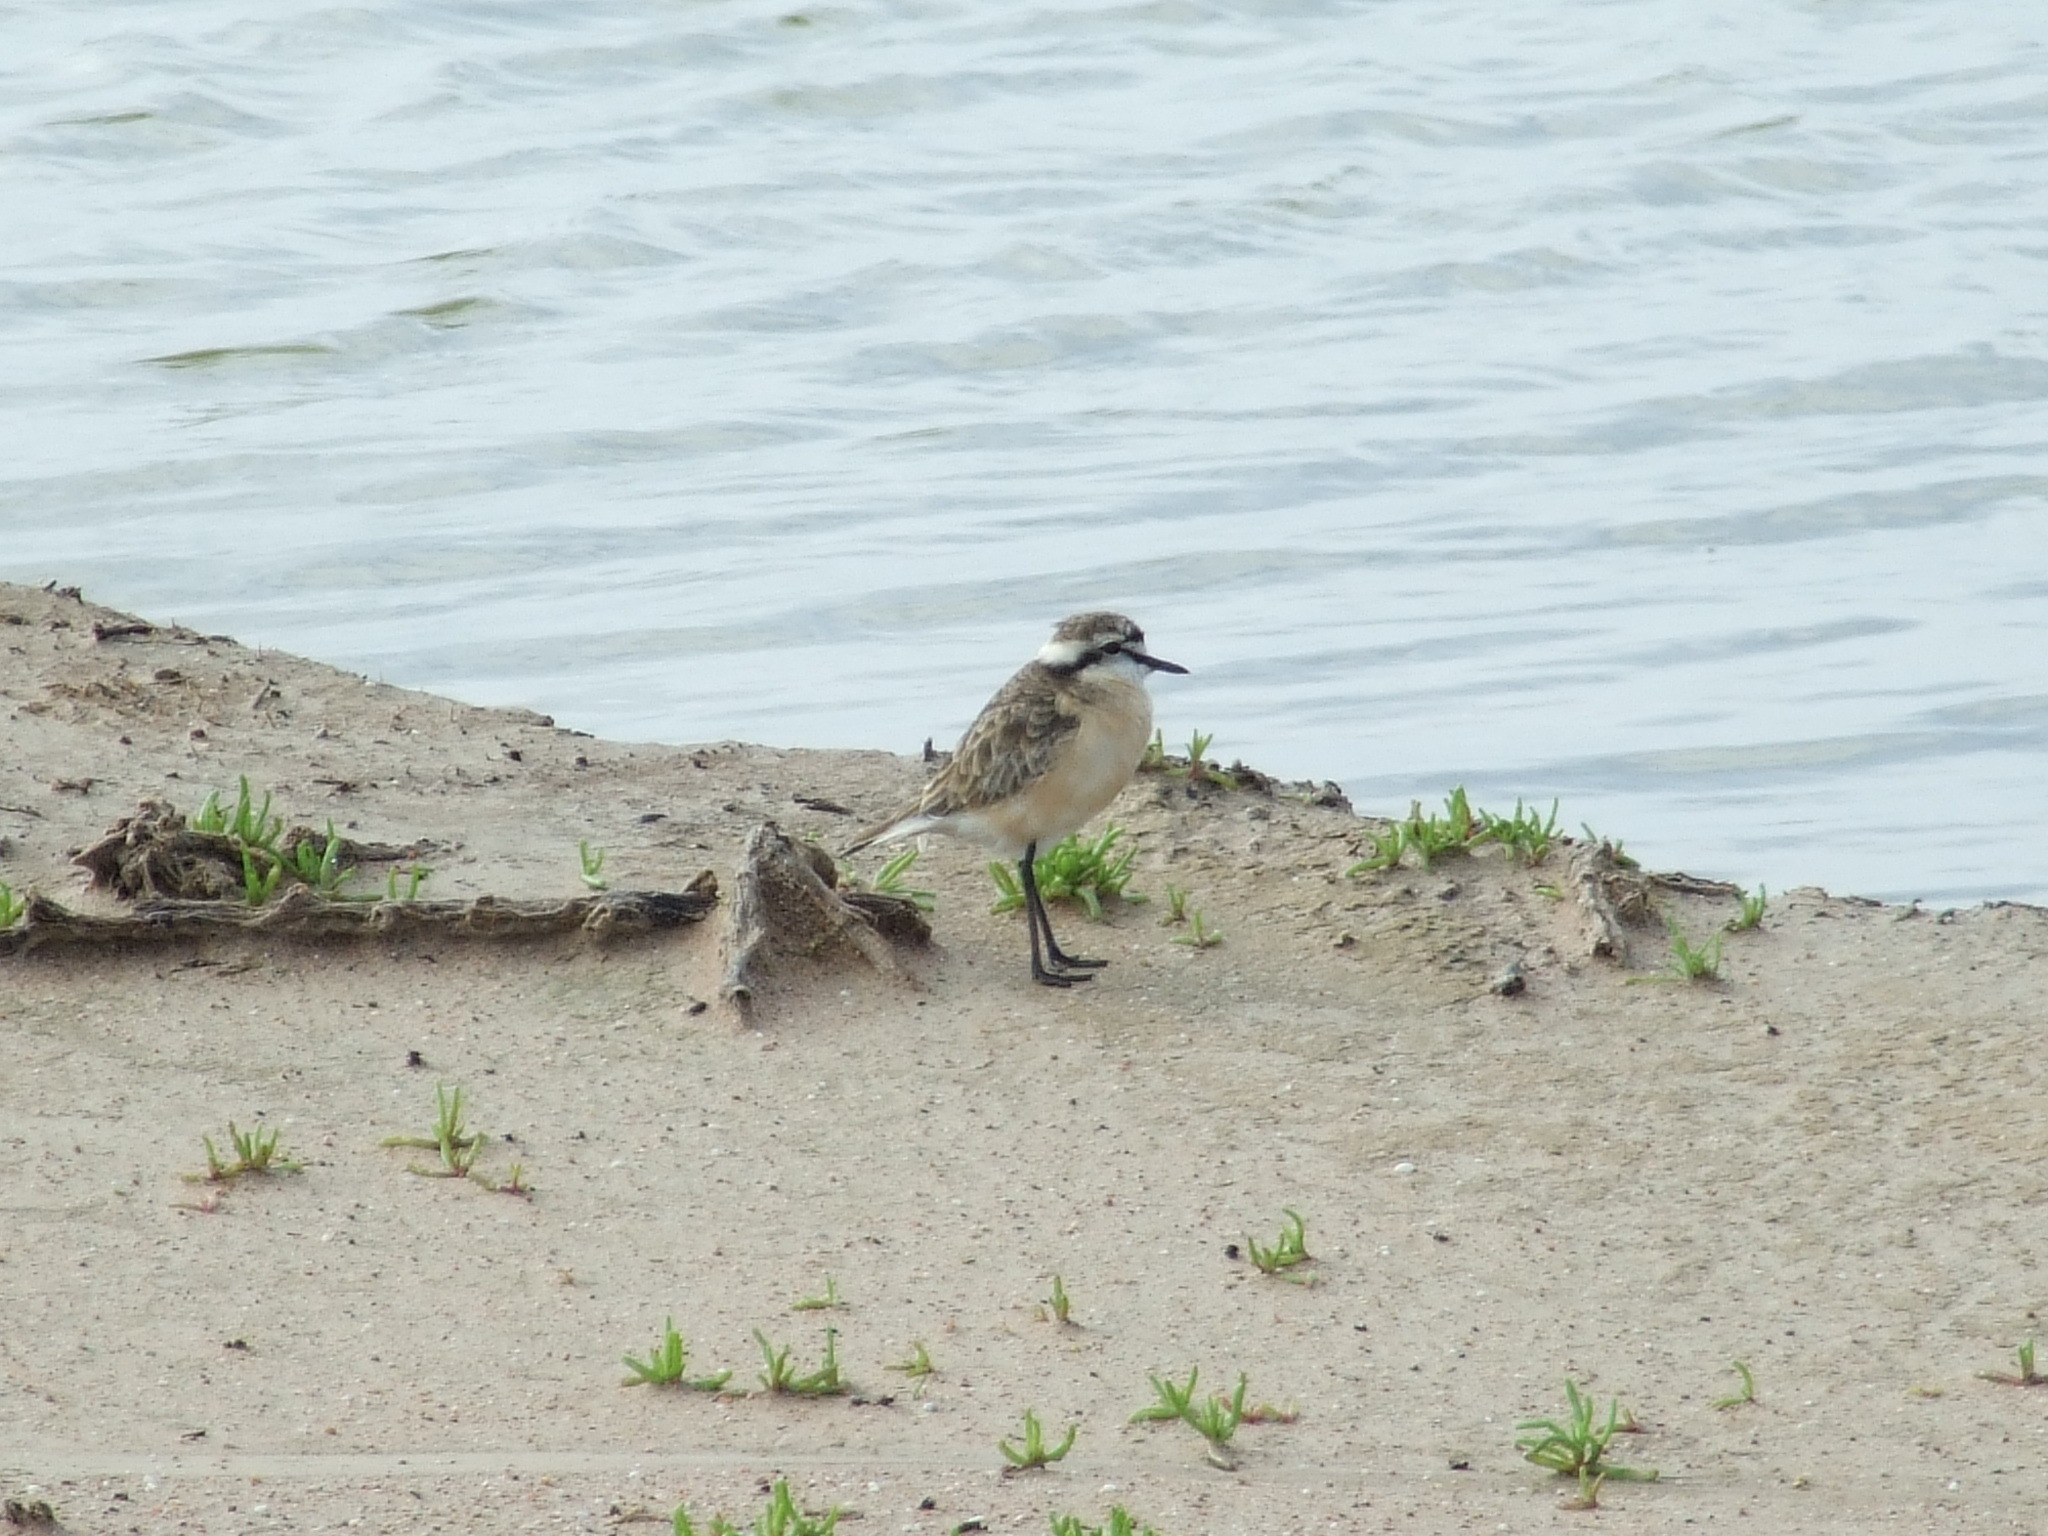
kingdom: Animalia
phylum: Chordata
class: Aves
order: Charadriiformes
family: Charadriidae
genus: Anarhynchus
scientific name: Anarhynchus
